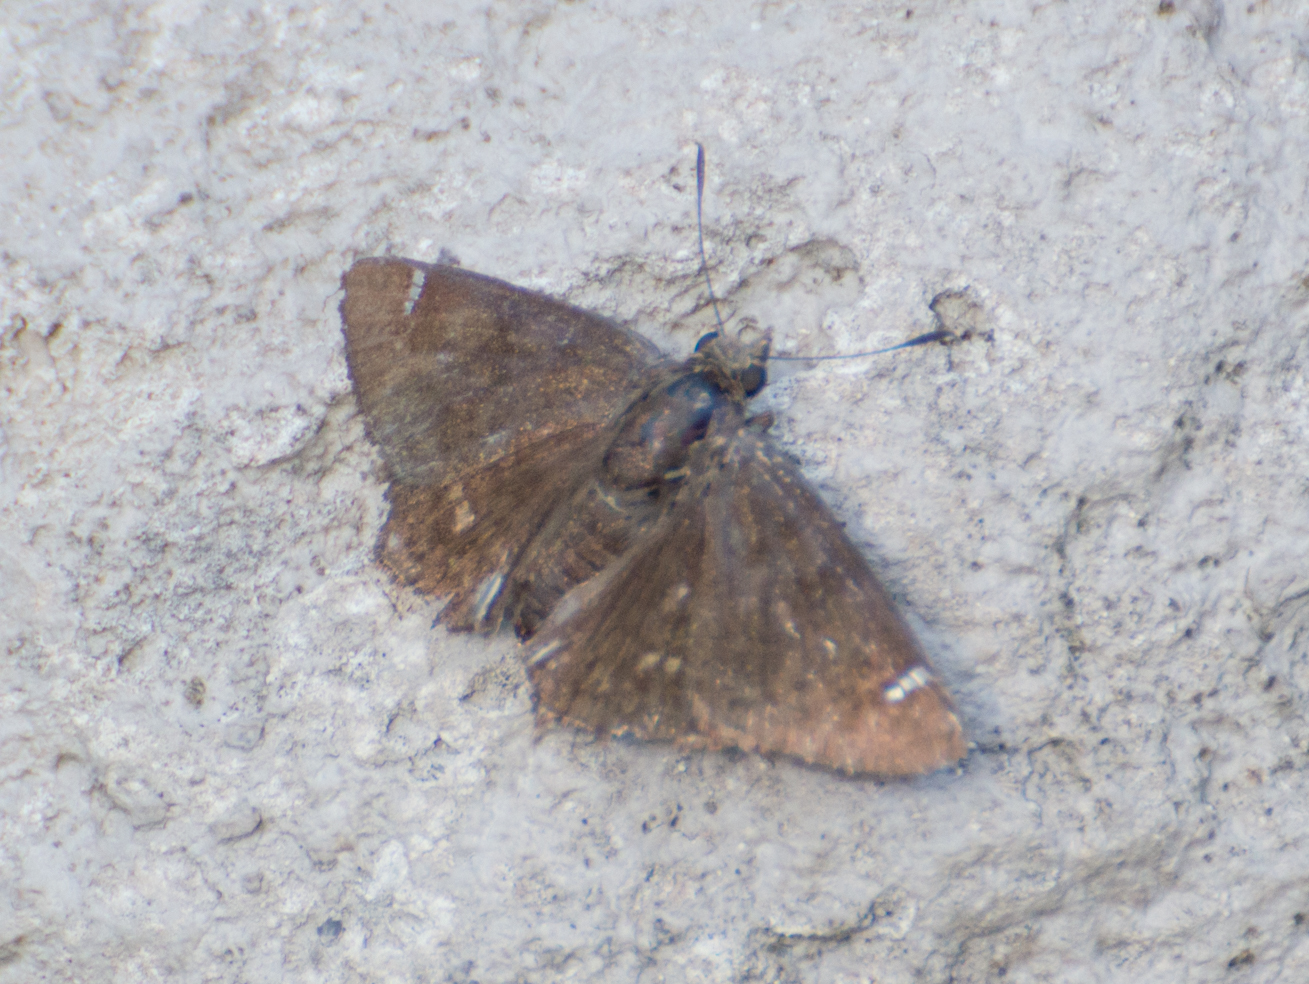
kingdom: Animalia
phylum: Arthropoda
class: Insecta
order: Lepidoptera
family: Hesperiidae
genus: Nisoniades
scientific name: Nisoniades haywardi
